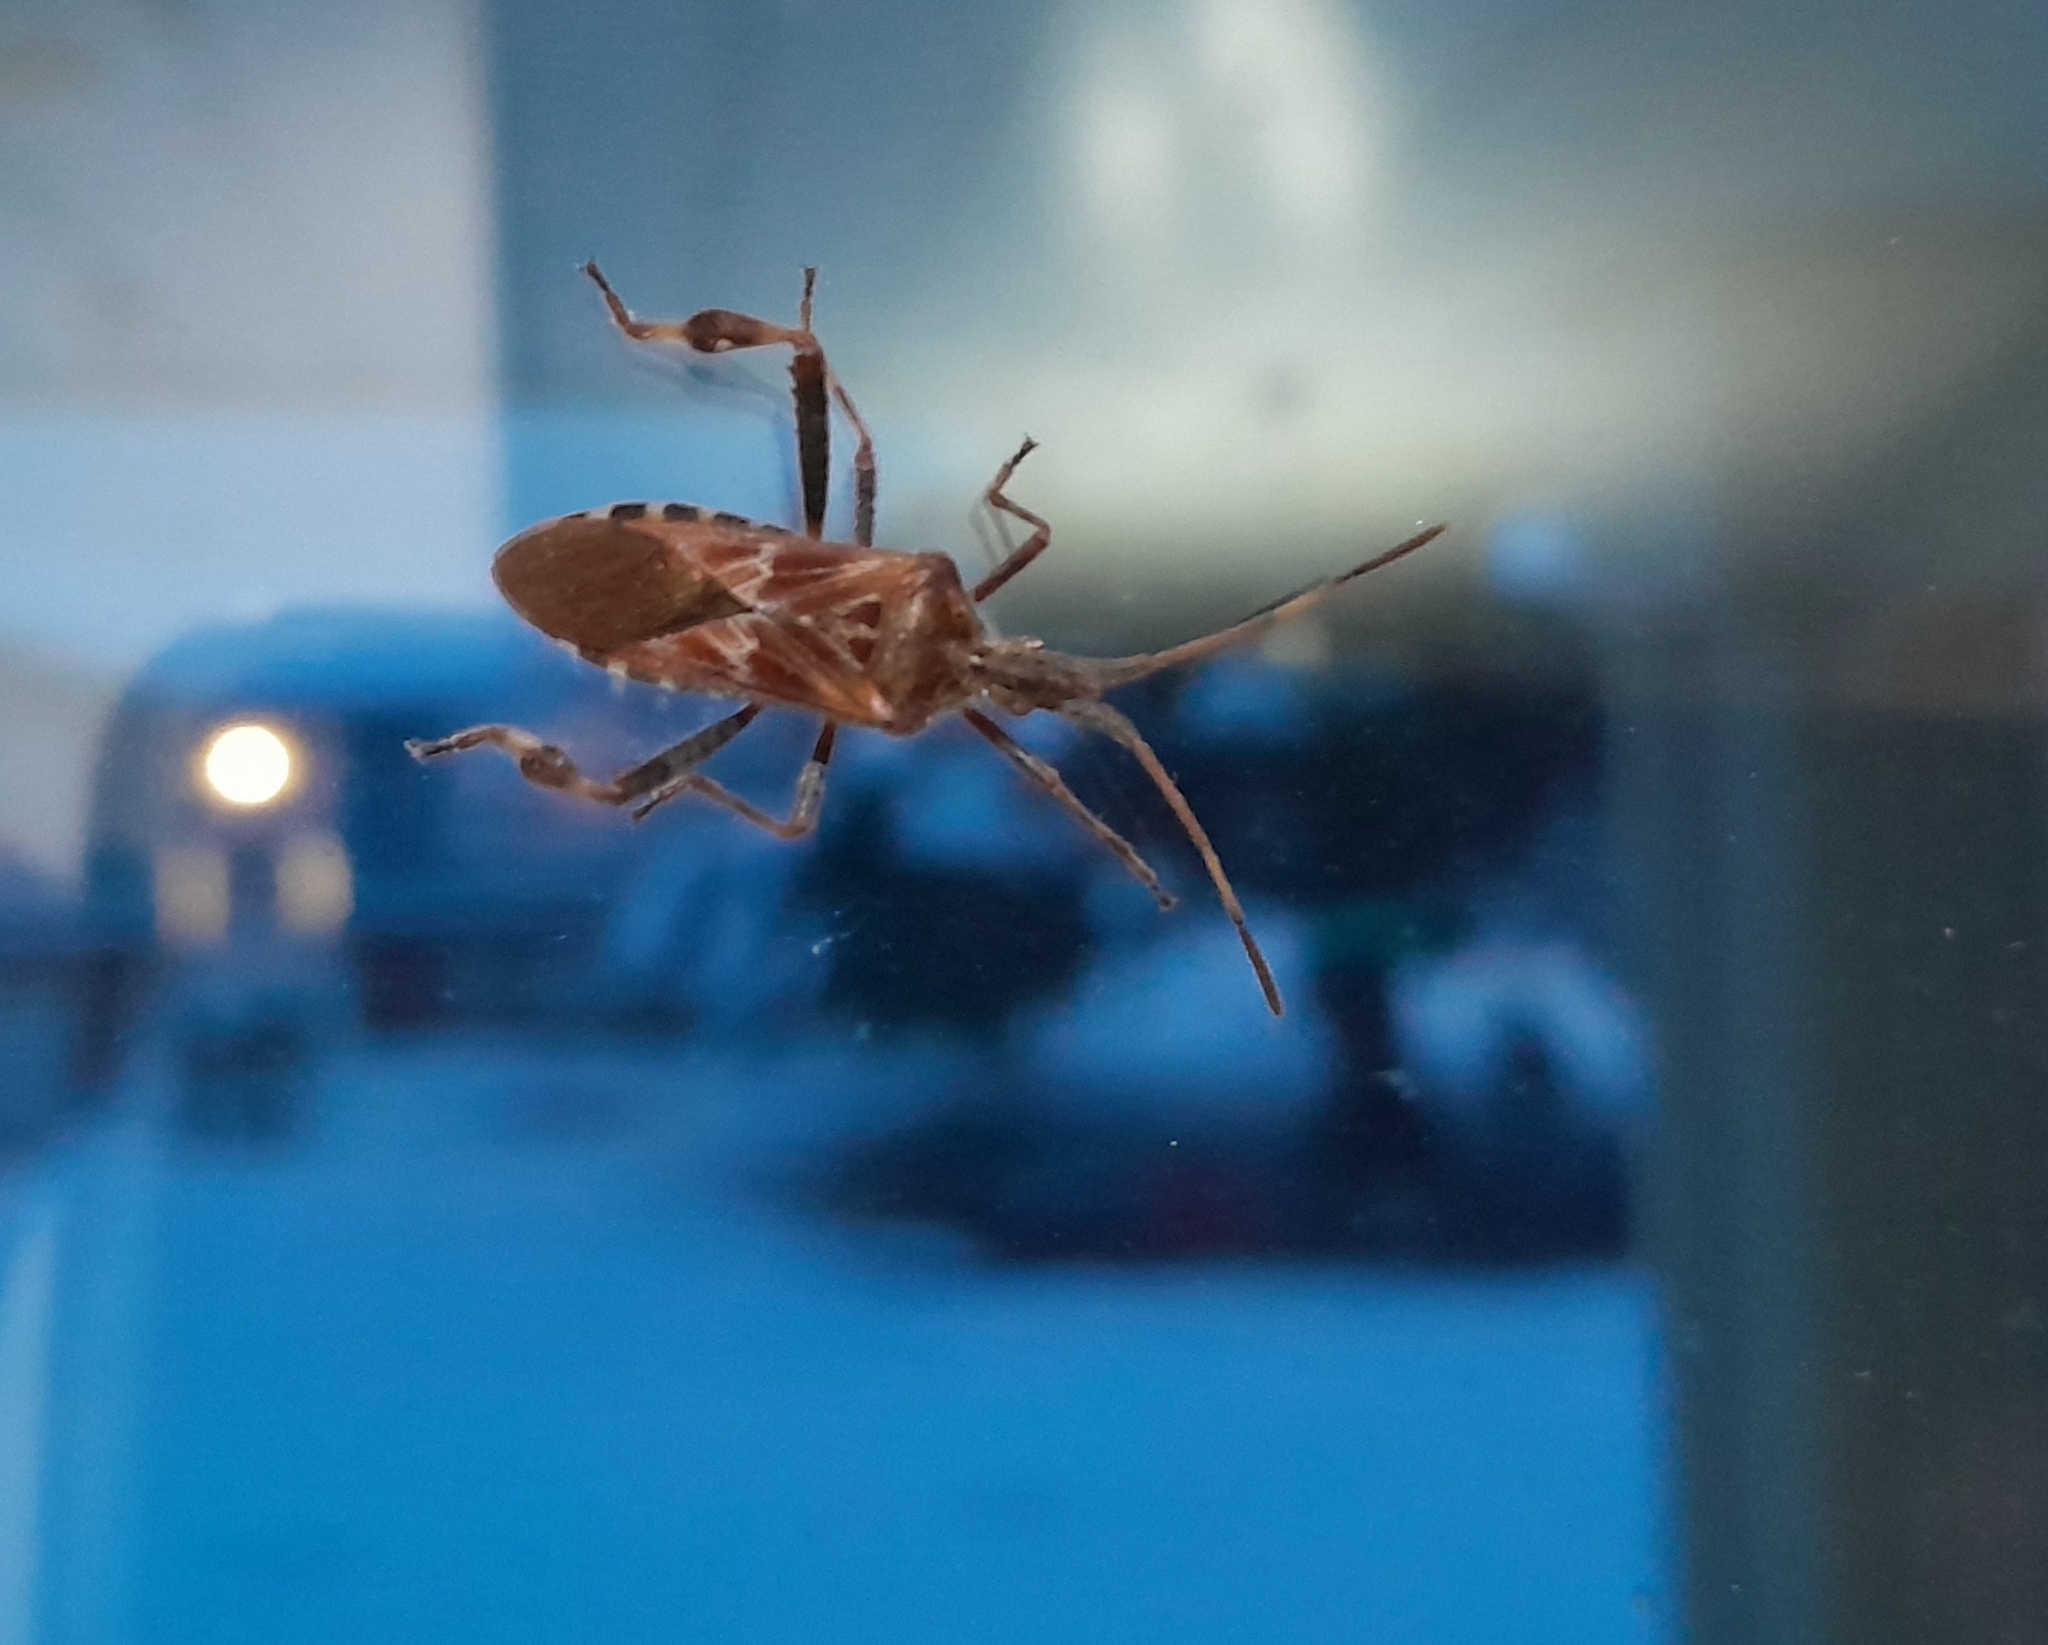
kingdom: Animalia
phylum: Arthropoda
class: Insecta
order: Hemiptera
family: Coreidae
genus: Leptoglossus
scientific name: Leptoglossus occidentalis
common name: Western conifer-seed bug
